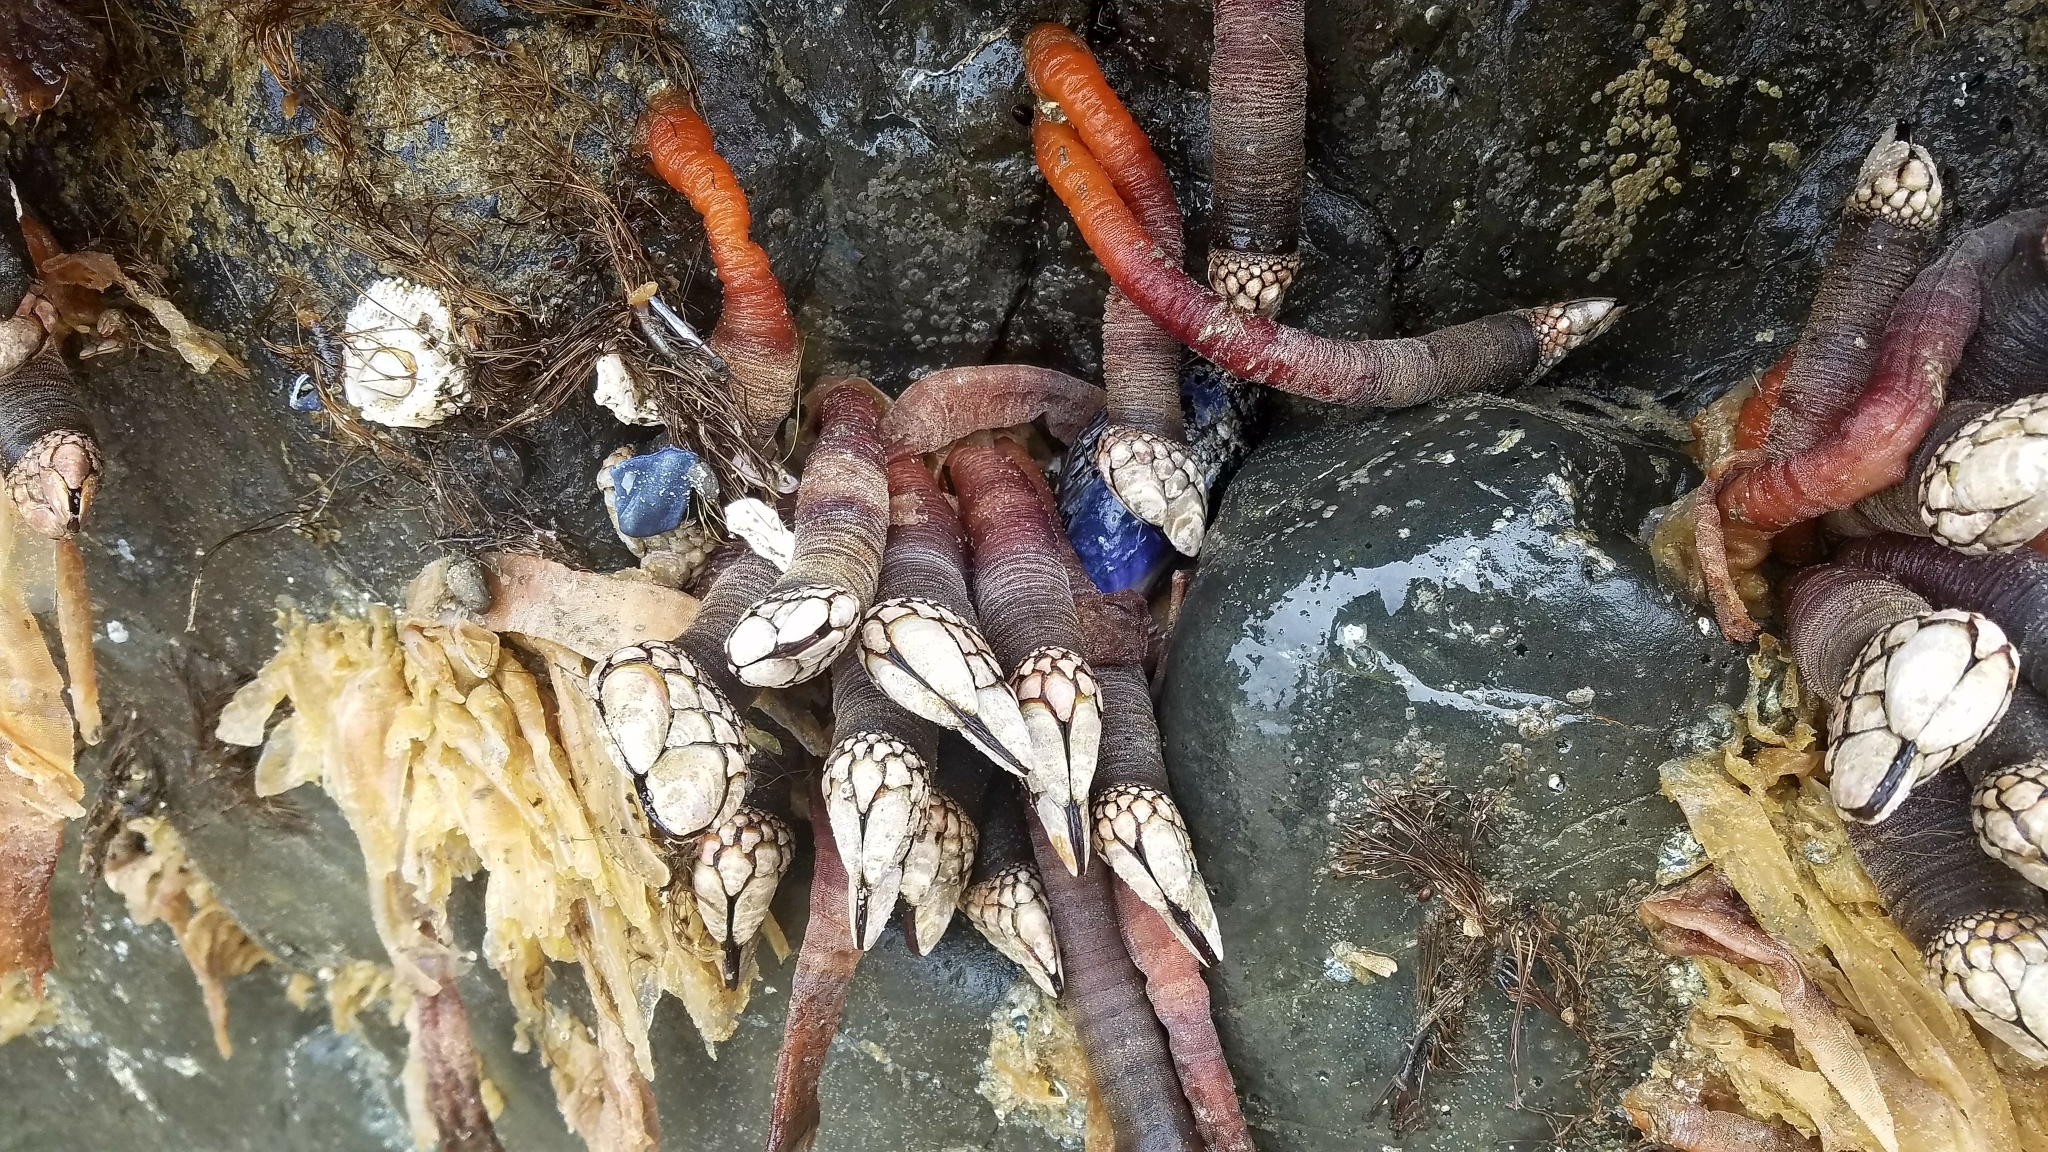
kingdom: Animalia
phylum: Arthropoda
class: Maxillopoda
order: Pedunculata
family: Pollicipedidae
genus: Pollicipes
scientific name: Pollicipes polymerus
